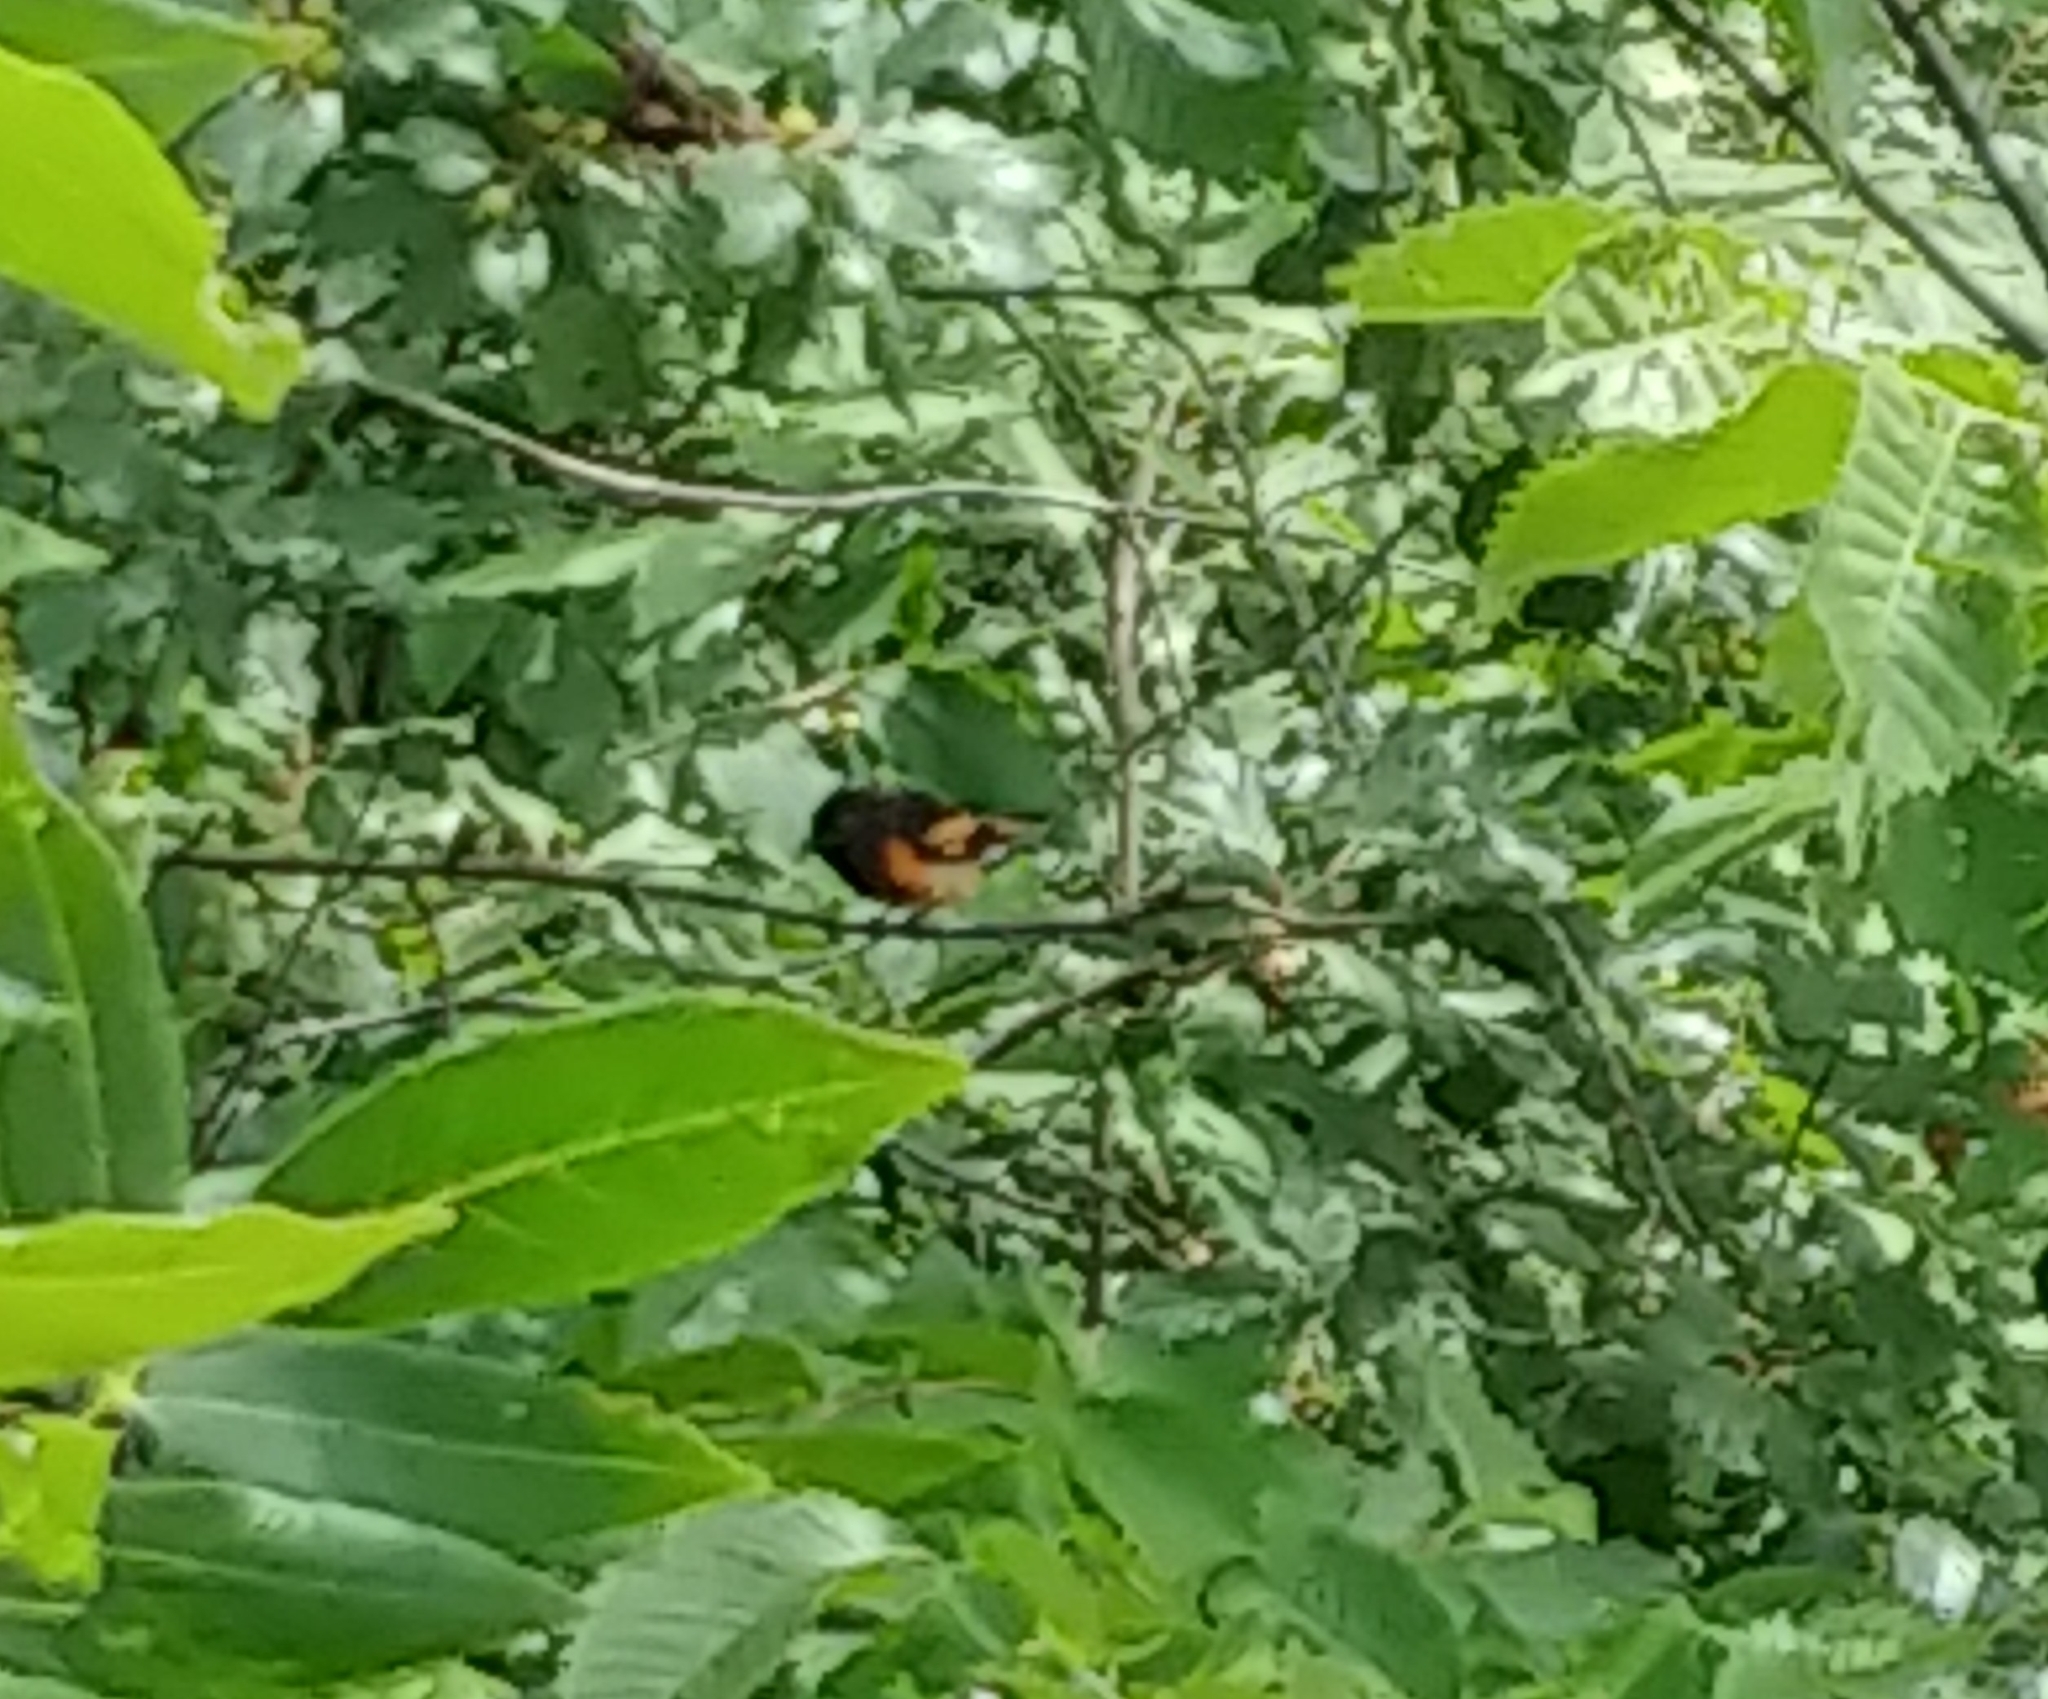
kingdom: Animalia
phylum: Chordata
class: Aves
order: Passeriformes
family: Parulidae
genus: Setophaga
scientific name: Setophaga ruticilla
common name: American redstart
